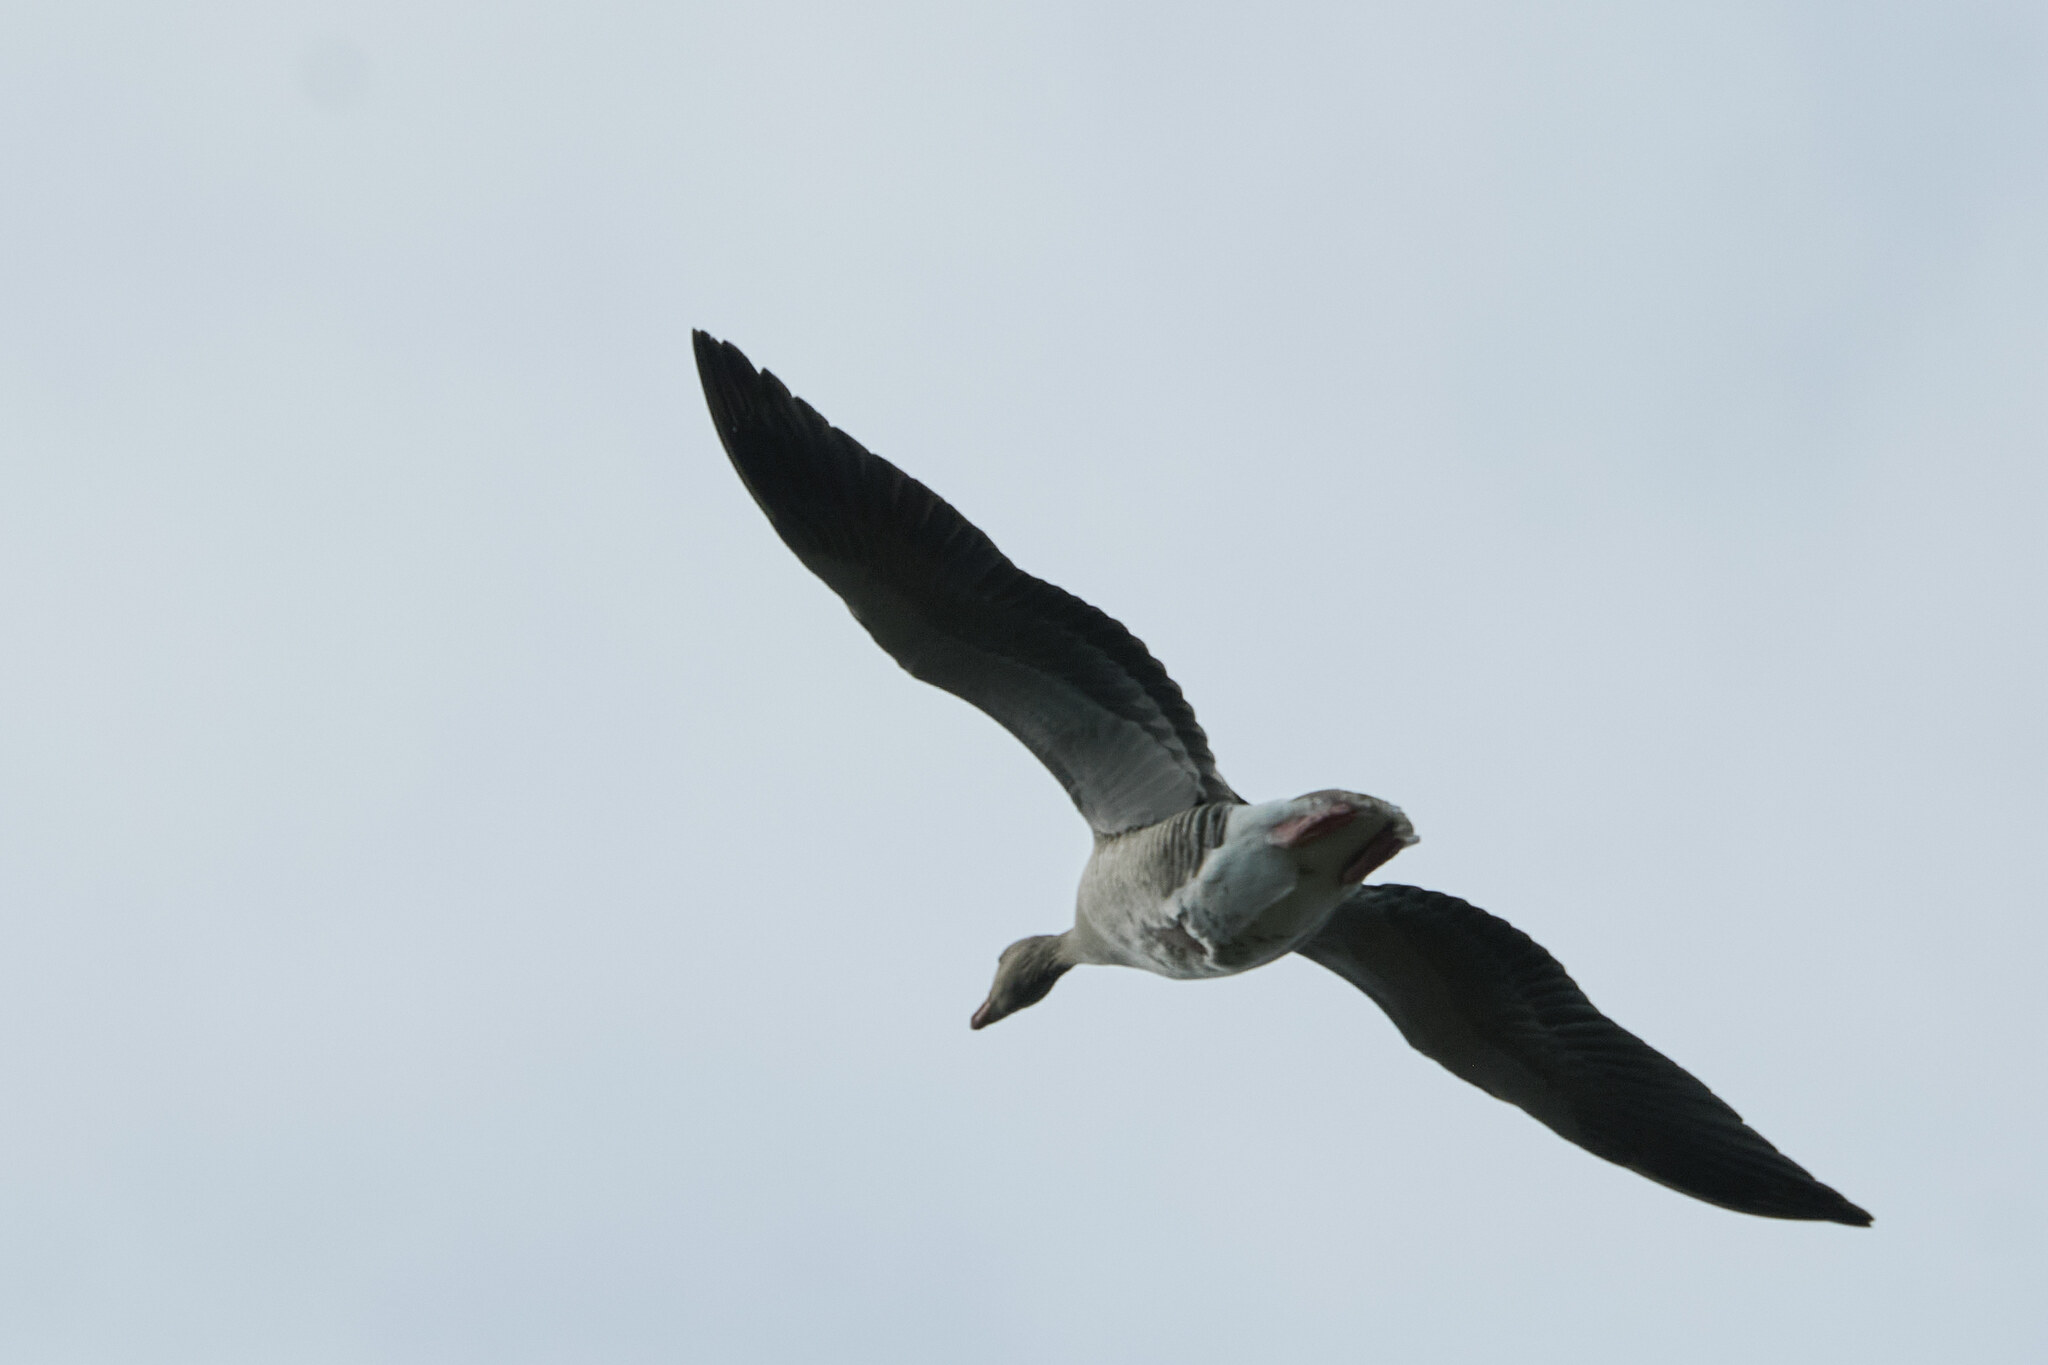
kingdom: Animalia
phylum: Chordata
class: Aves
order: Anseriformes
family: Anatidae
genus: Anser
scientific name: Anser anser
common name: Greylag goose
